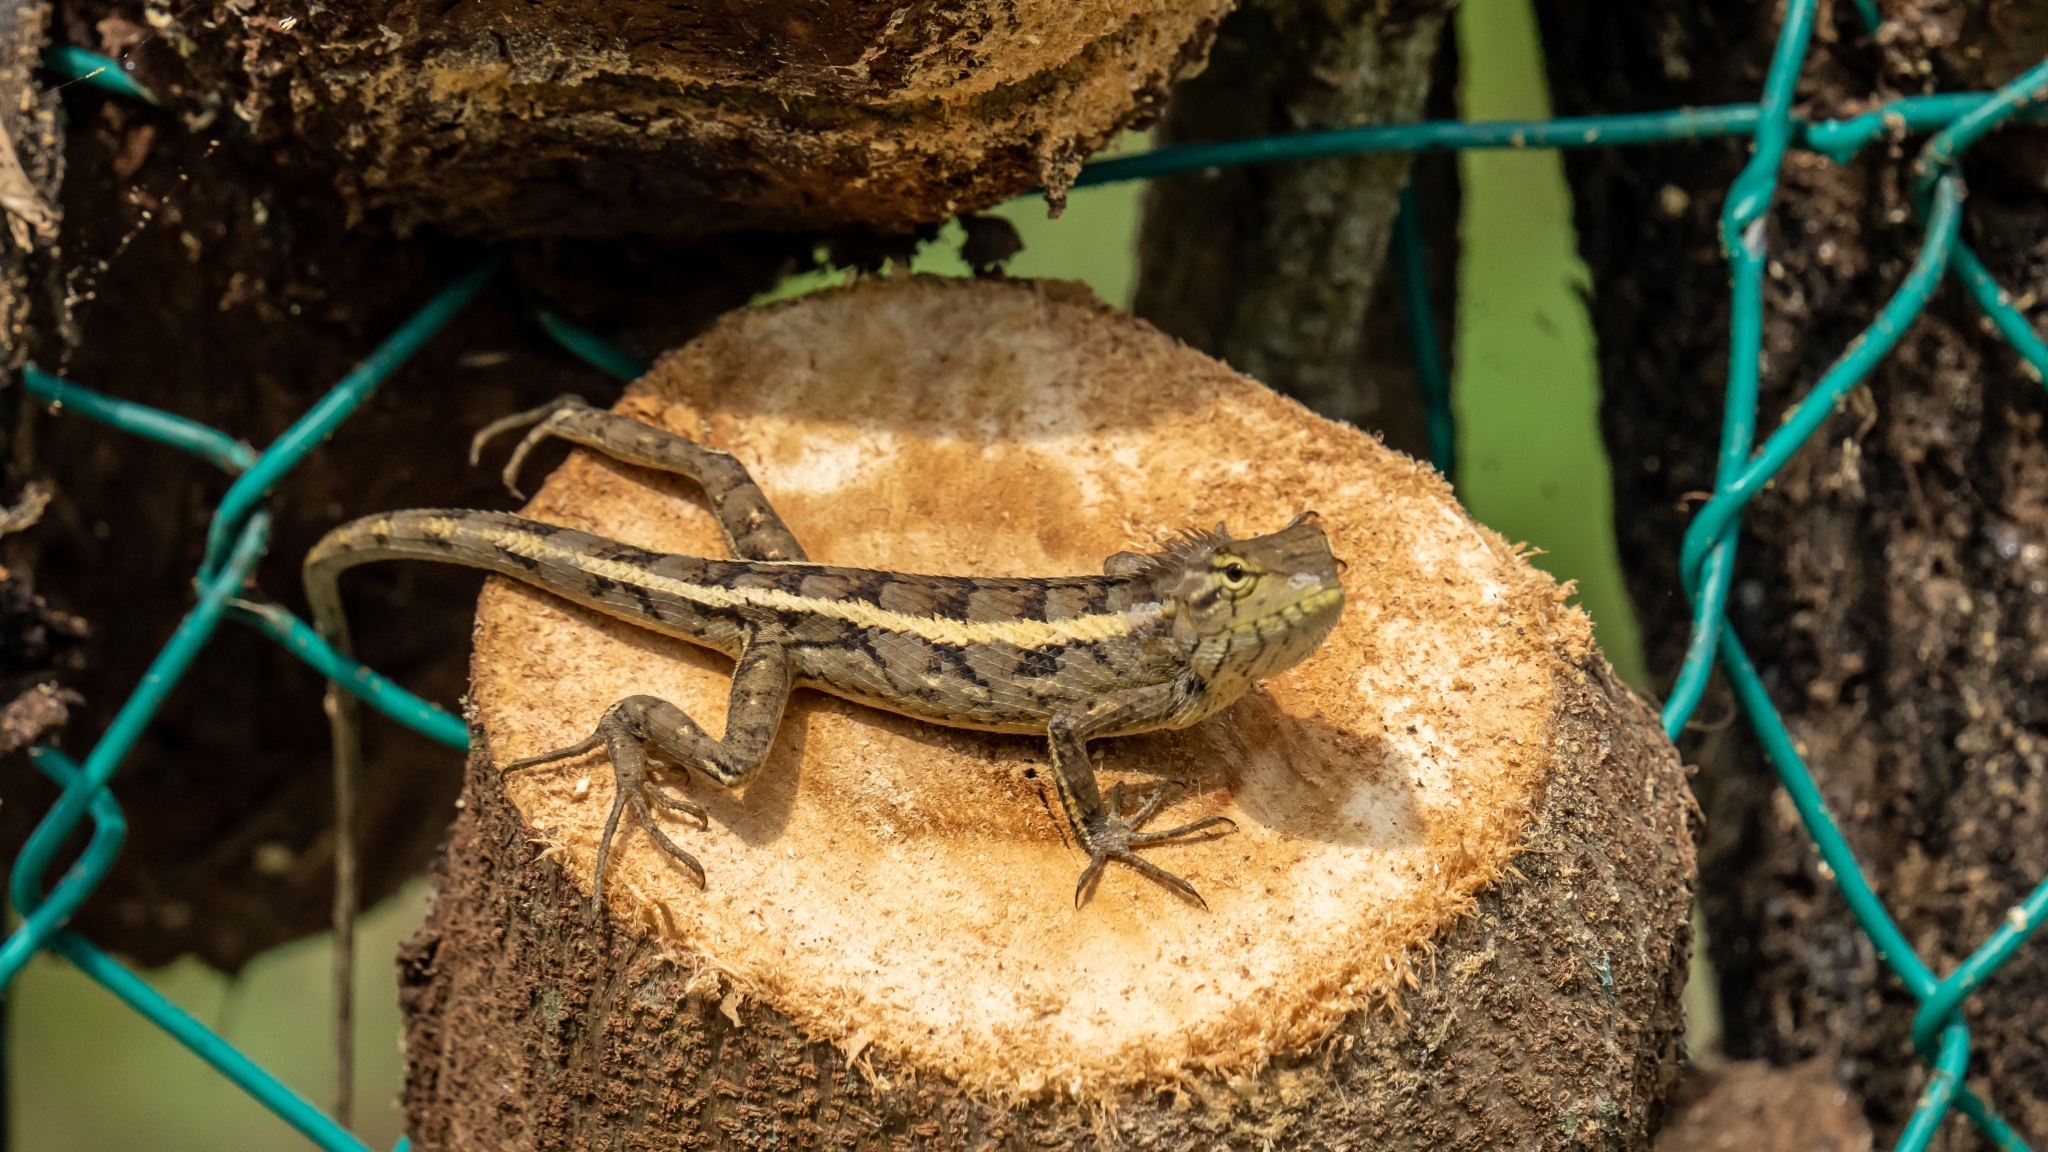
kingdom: Animalia
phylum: Chordata
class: Squamata
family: Agamidae
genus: Calotes
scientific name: Calotes versicolor
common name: Oriental garden lizard
